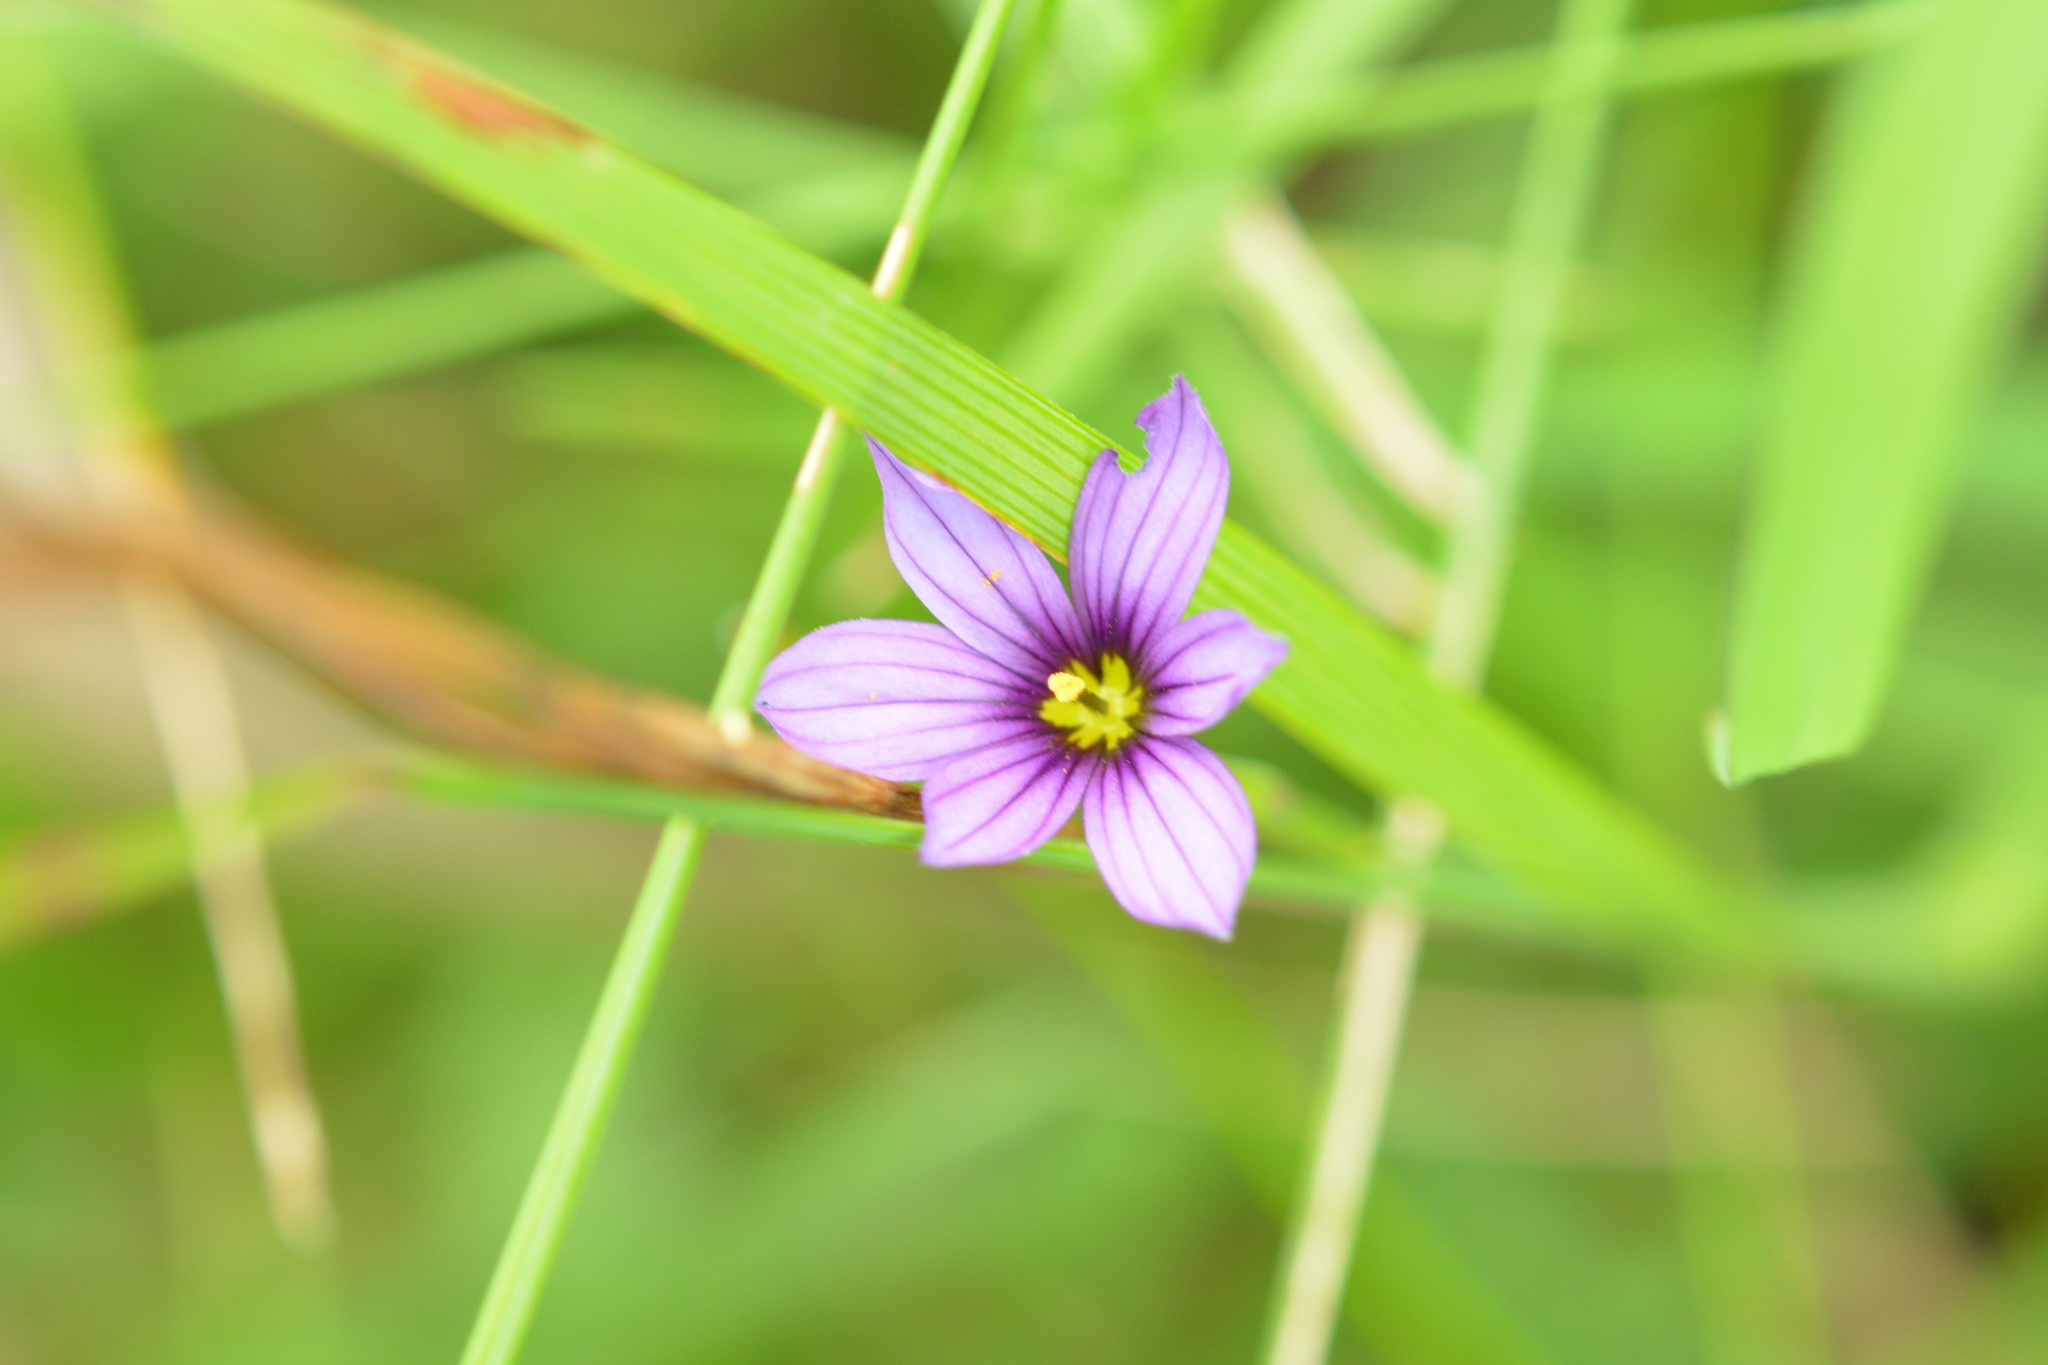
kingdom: Plantae
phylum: Tracheophyta
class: Liliopsida
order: Asparagales
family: Iridaceae
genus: Sisyrinchium
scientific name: Sisyrinchium scabrum
